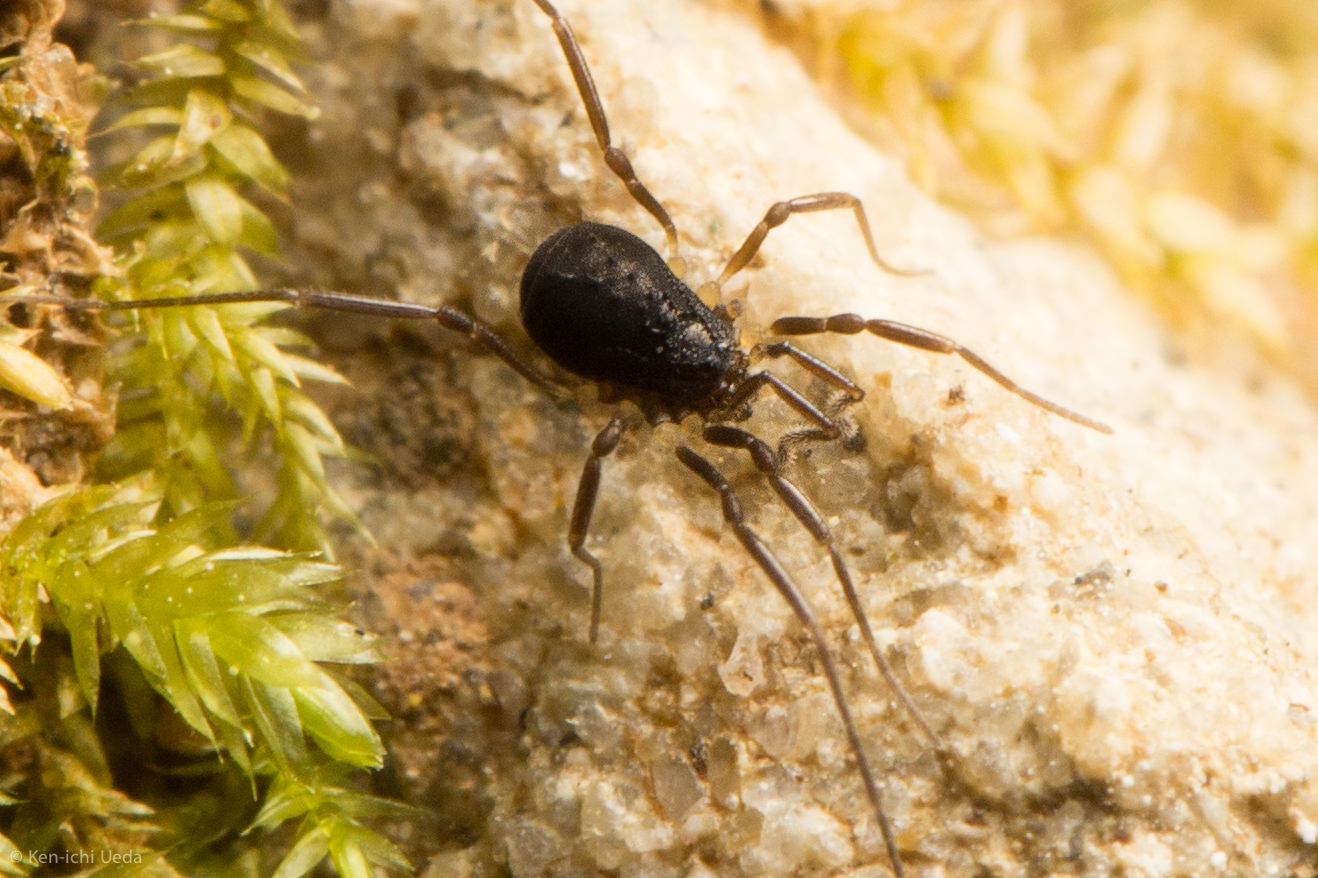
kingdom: Animalia
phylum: Arthropoda
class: Arachnida
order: Opiliones
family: Taracidae
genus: Hesperonemastoma
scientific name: Hesperonemastoma modestum
